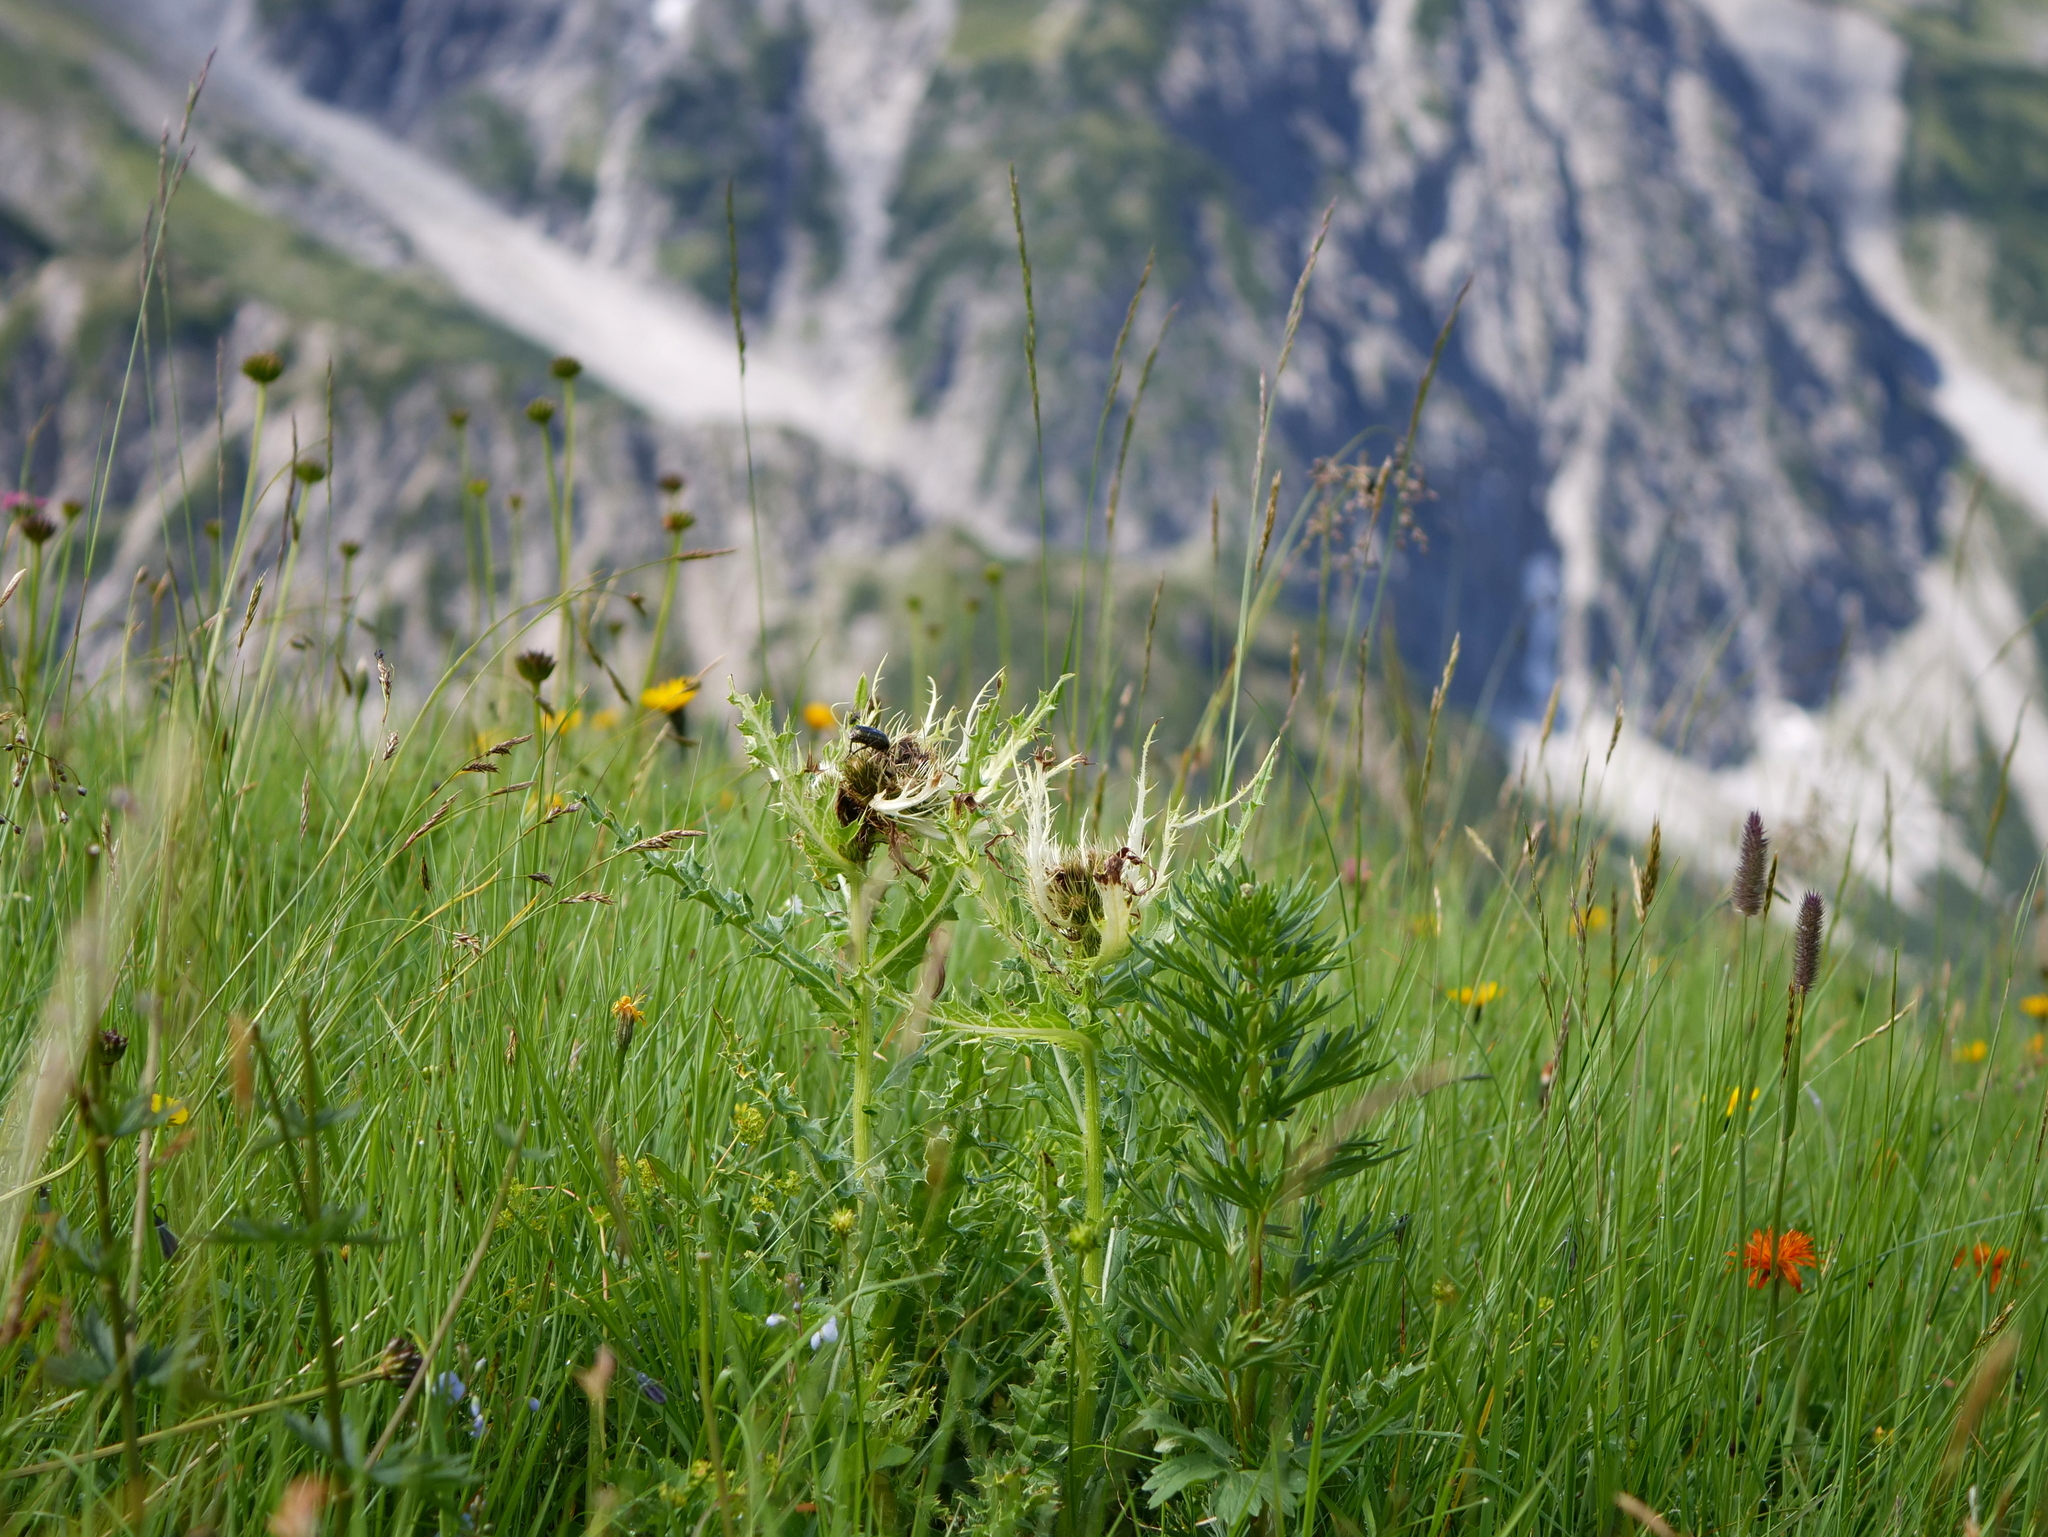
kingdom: Plantae
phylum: Tracheophyta
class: Magnoliopsida
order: Asterales
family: Asteraceae
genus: Cirsium
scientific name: Cirsium spinosissimum
